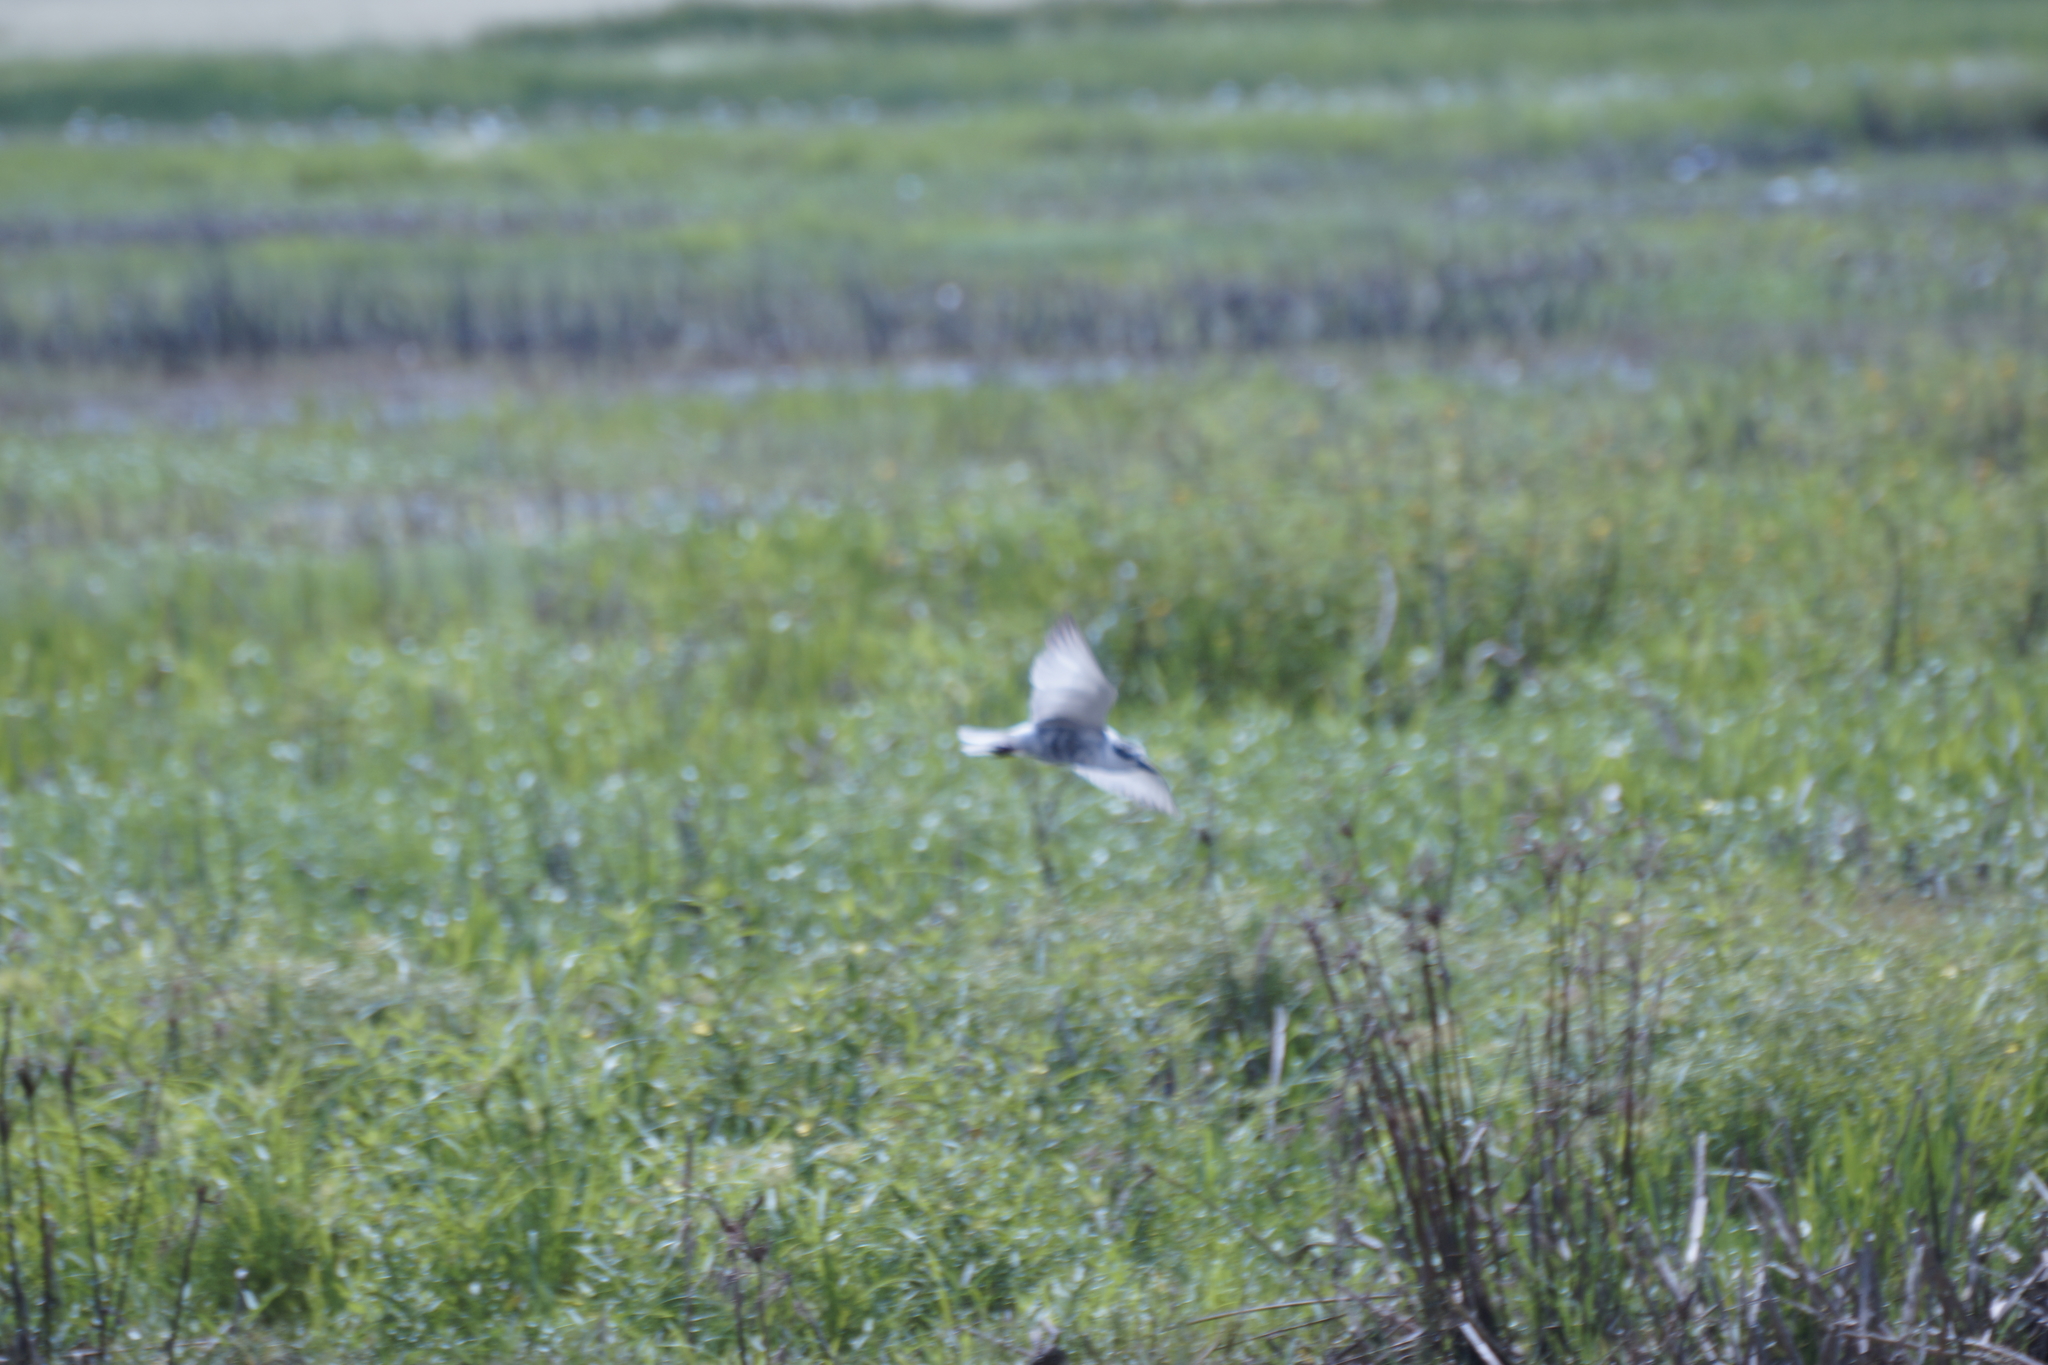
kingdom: Animalia
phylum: Chordata
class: Aves
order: Charadriiformes
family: Laridae
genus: Chlidonias
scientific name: Chlidonias hybrida
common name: Whiskered tern
